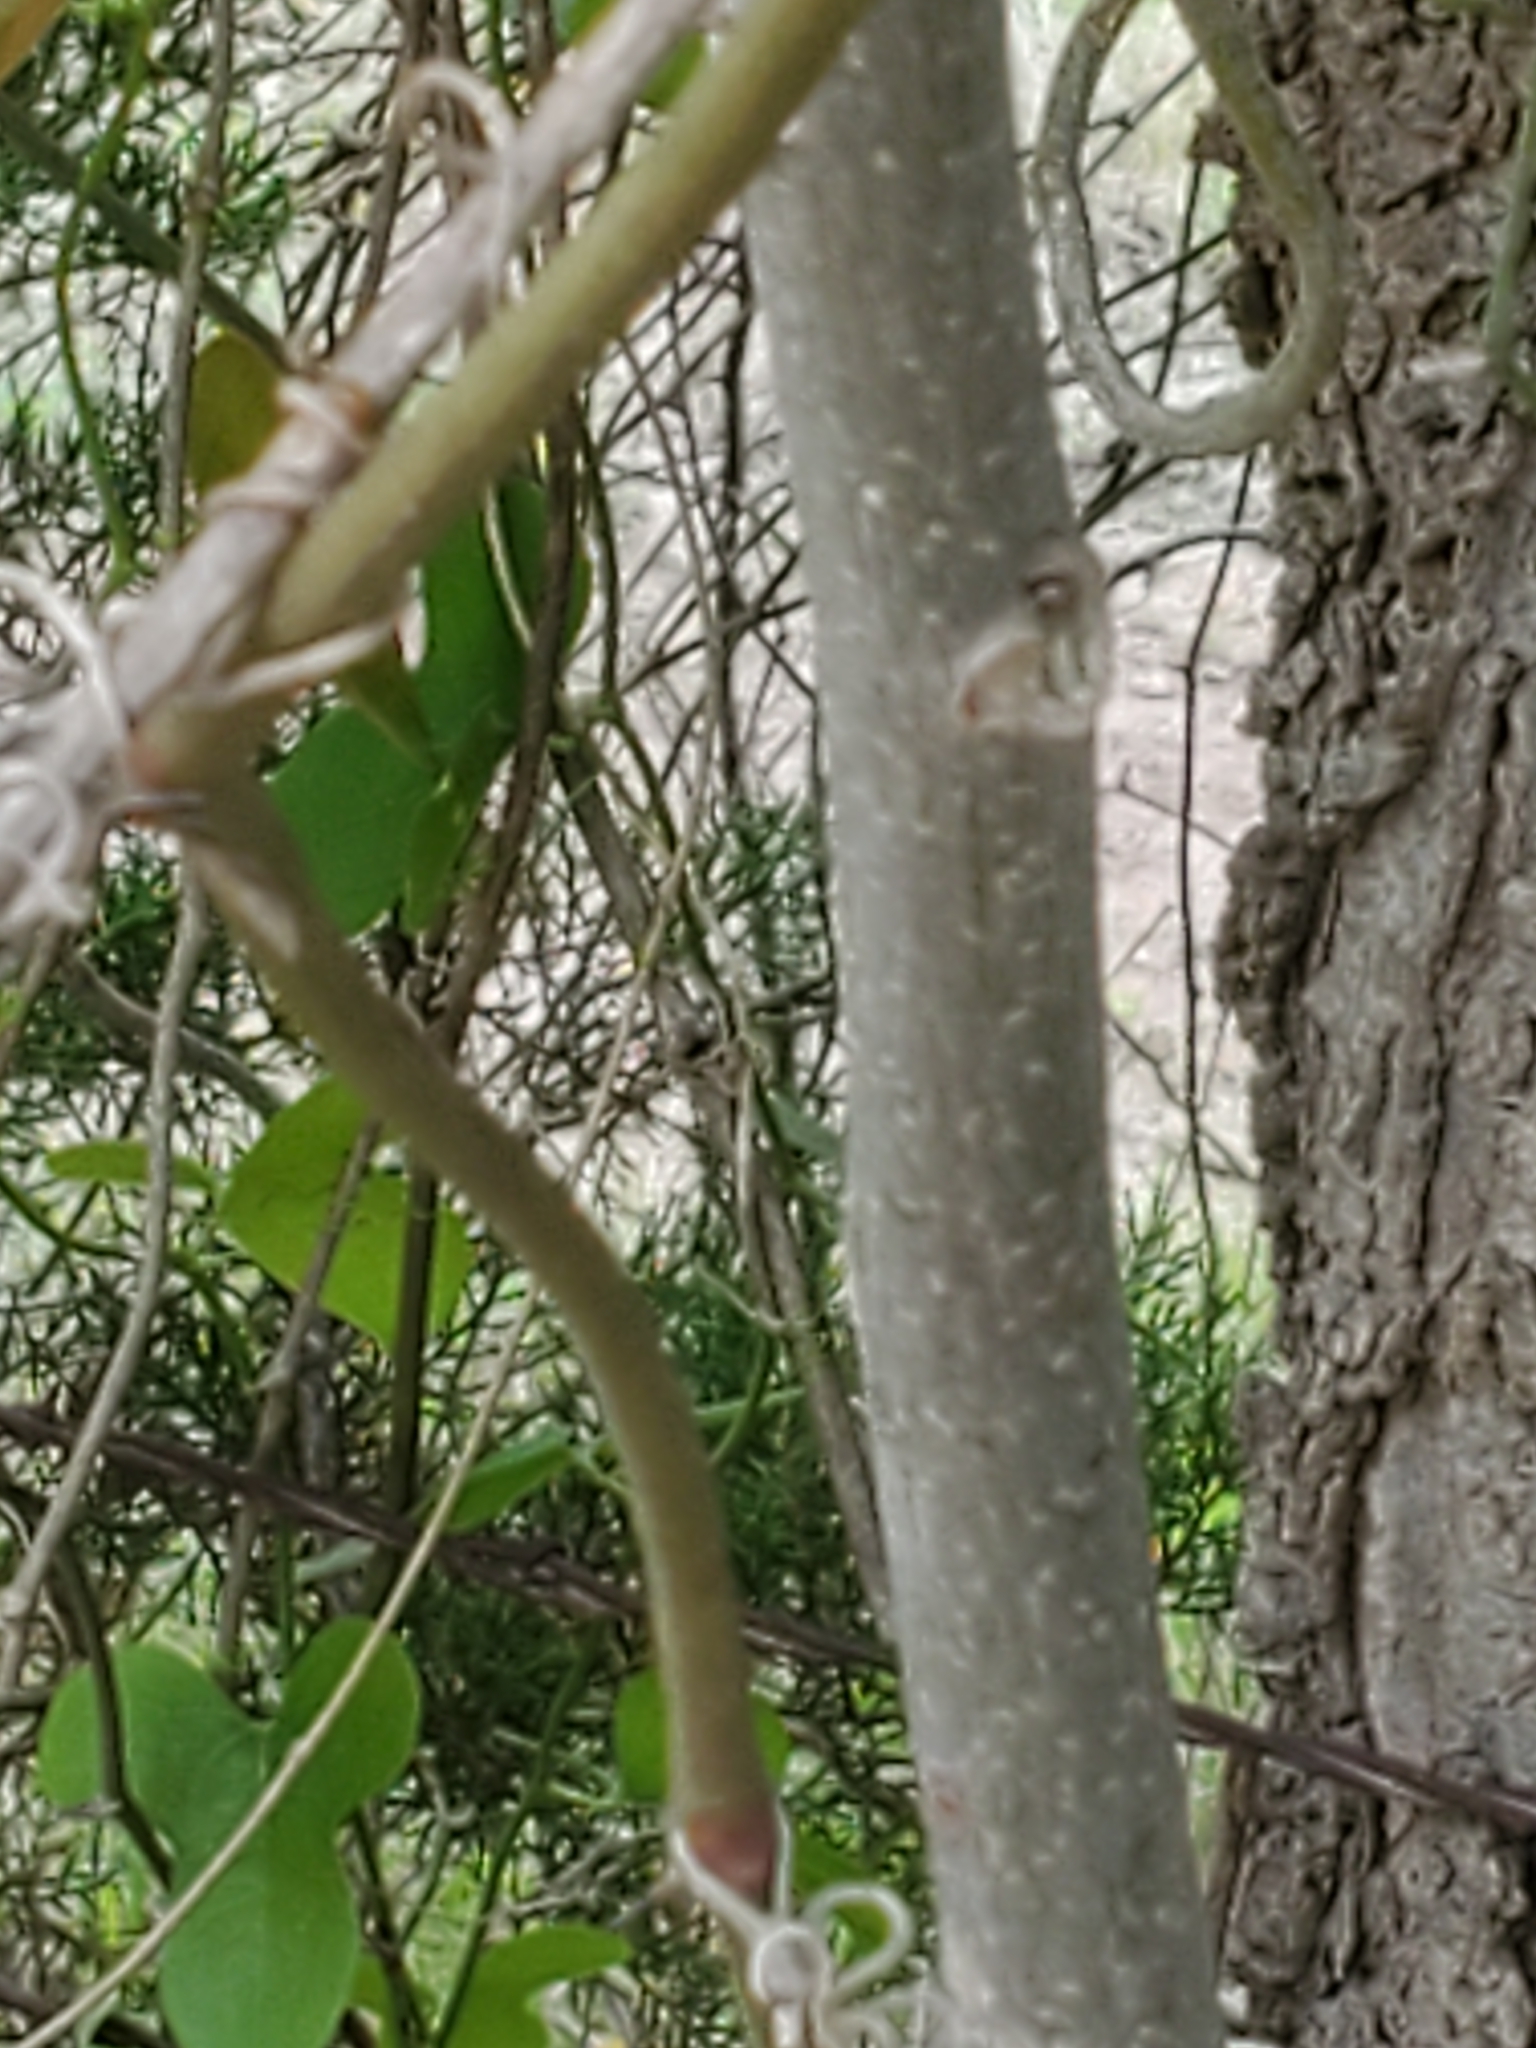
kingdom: Plantae
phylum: Tracheophyta
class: Magnoliopsida
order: Fagales
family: Juglandaceae
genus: Carya
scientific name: Carya illinoinensis
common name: Pecan
